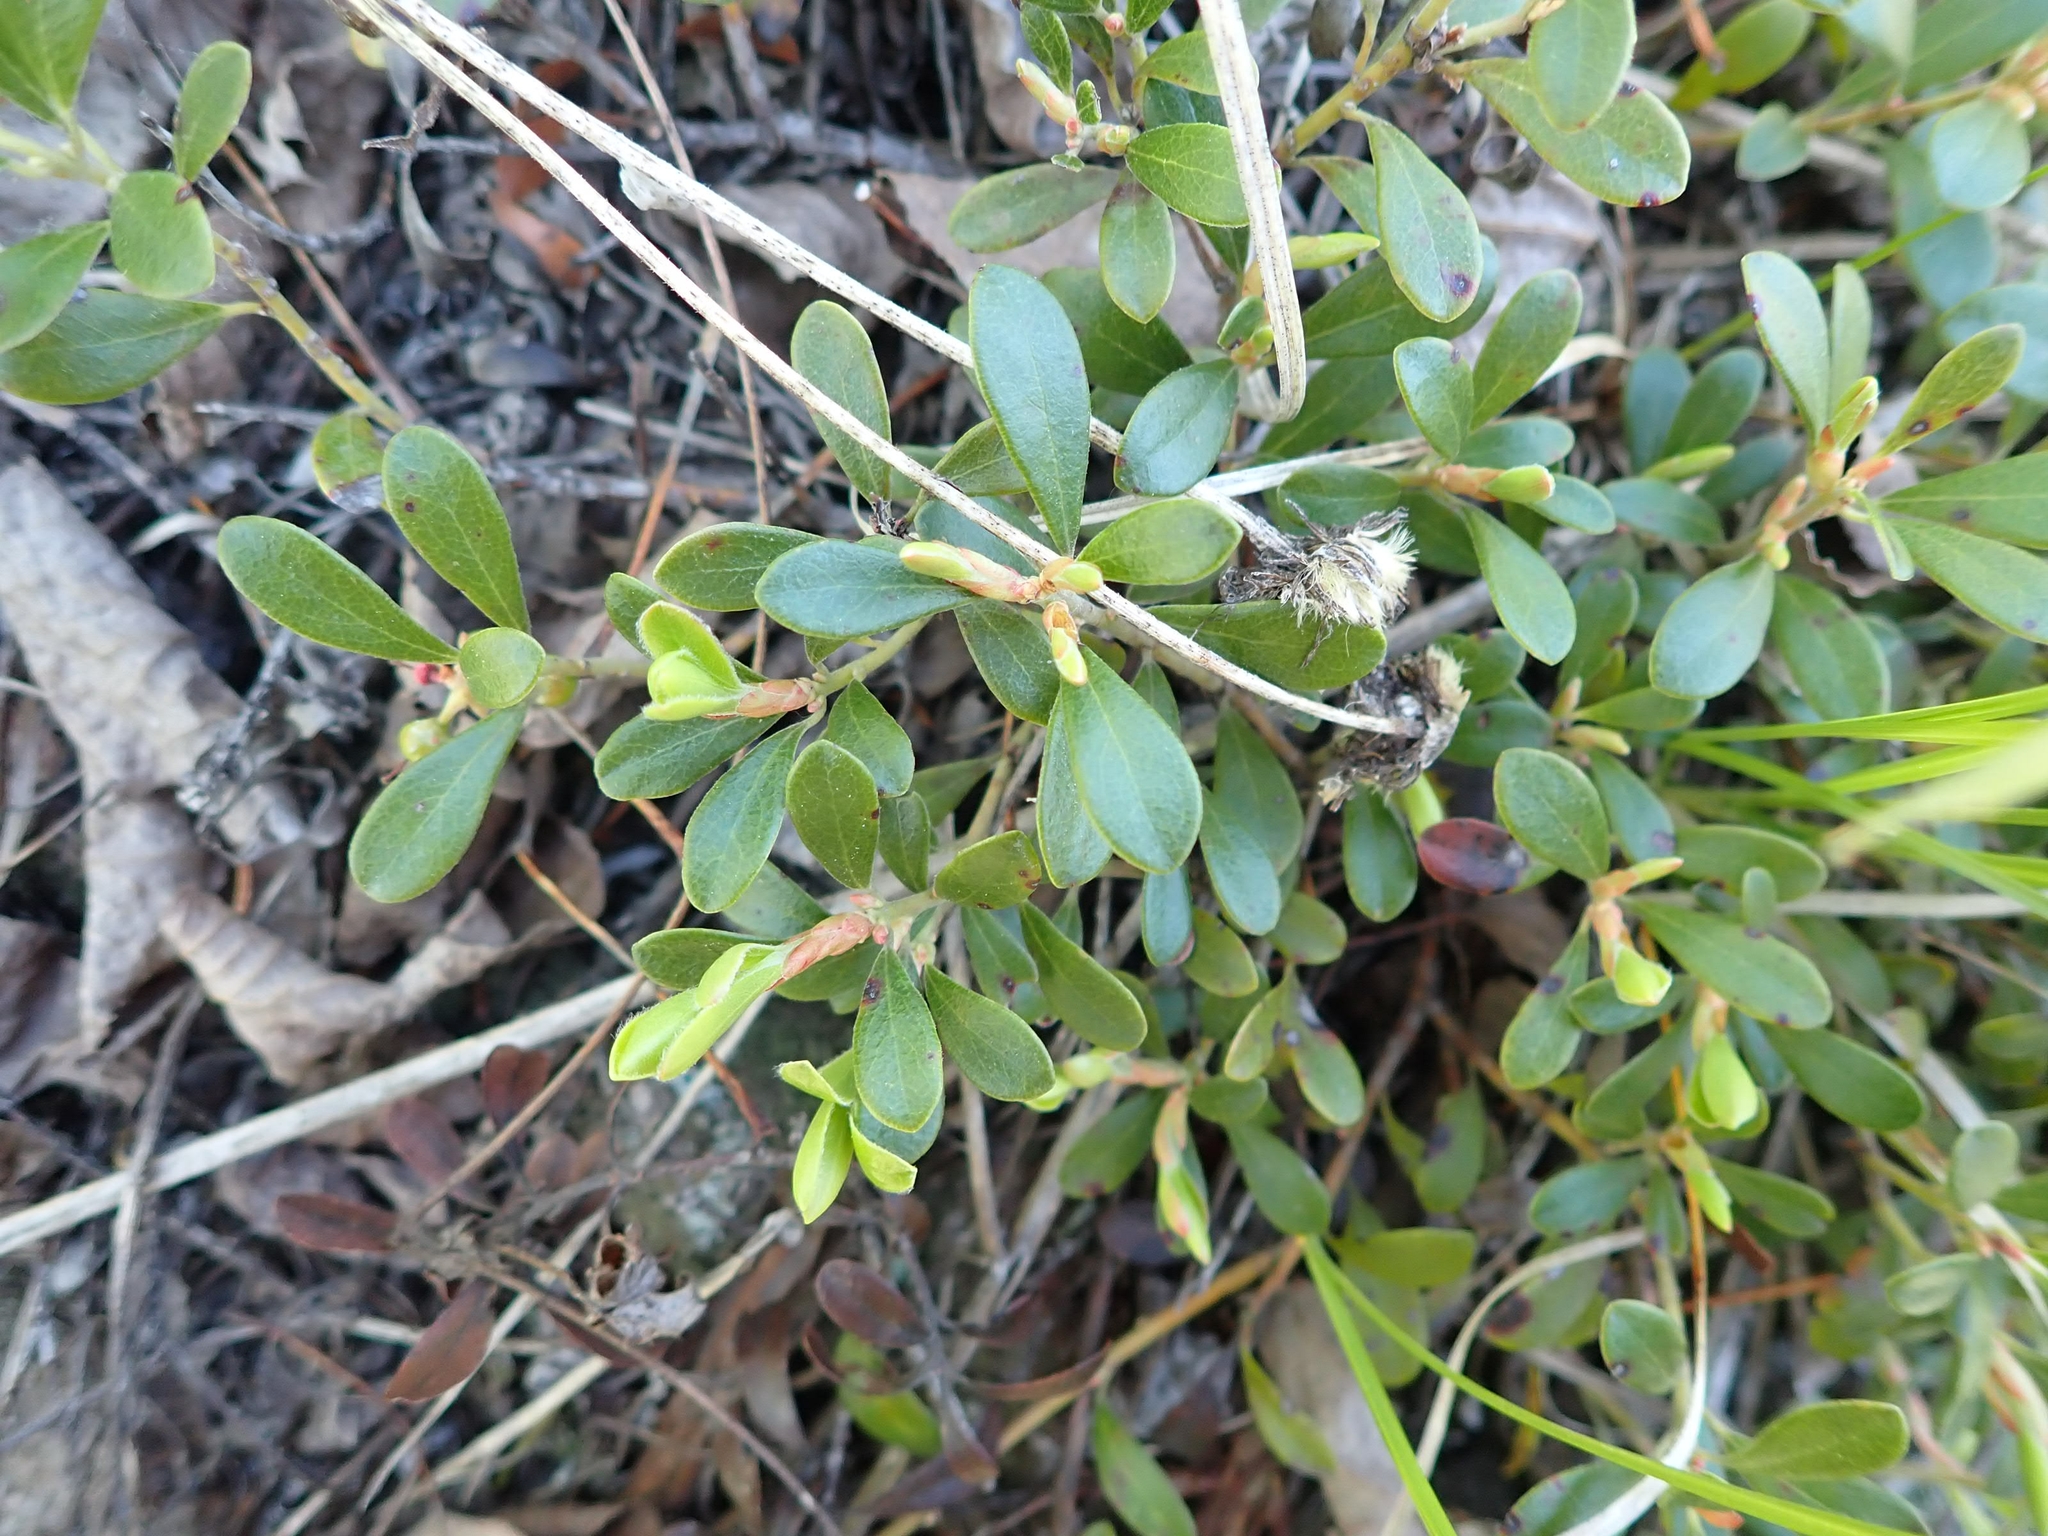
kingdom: Plantae
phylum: Tracheophyta
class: Magnoliopsida
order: Ericales
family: Ericaceae
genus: Arctostaphylos
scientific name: Arctostaphylos uva-ursi
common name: Bearberry
